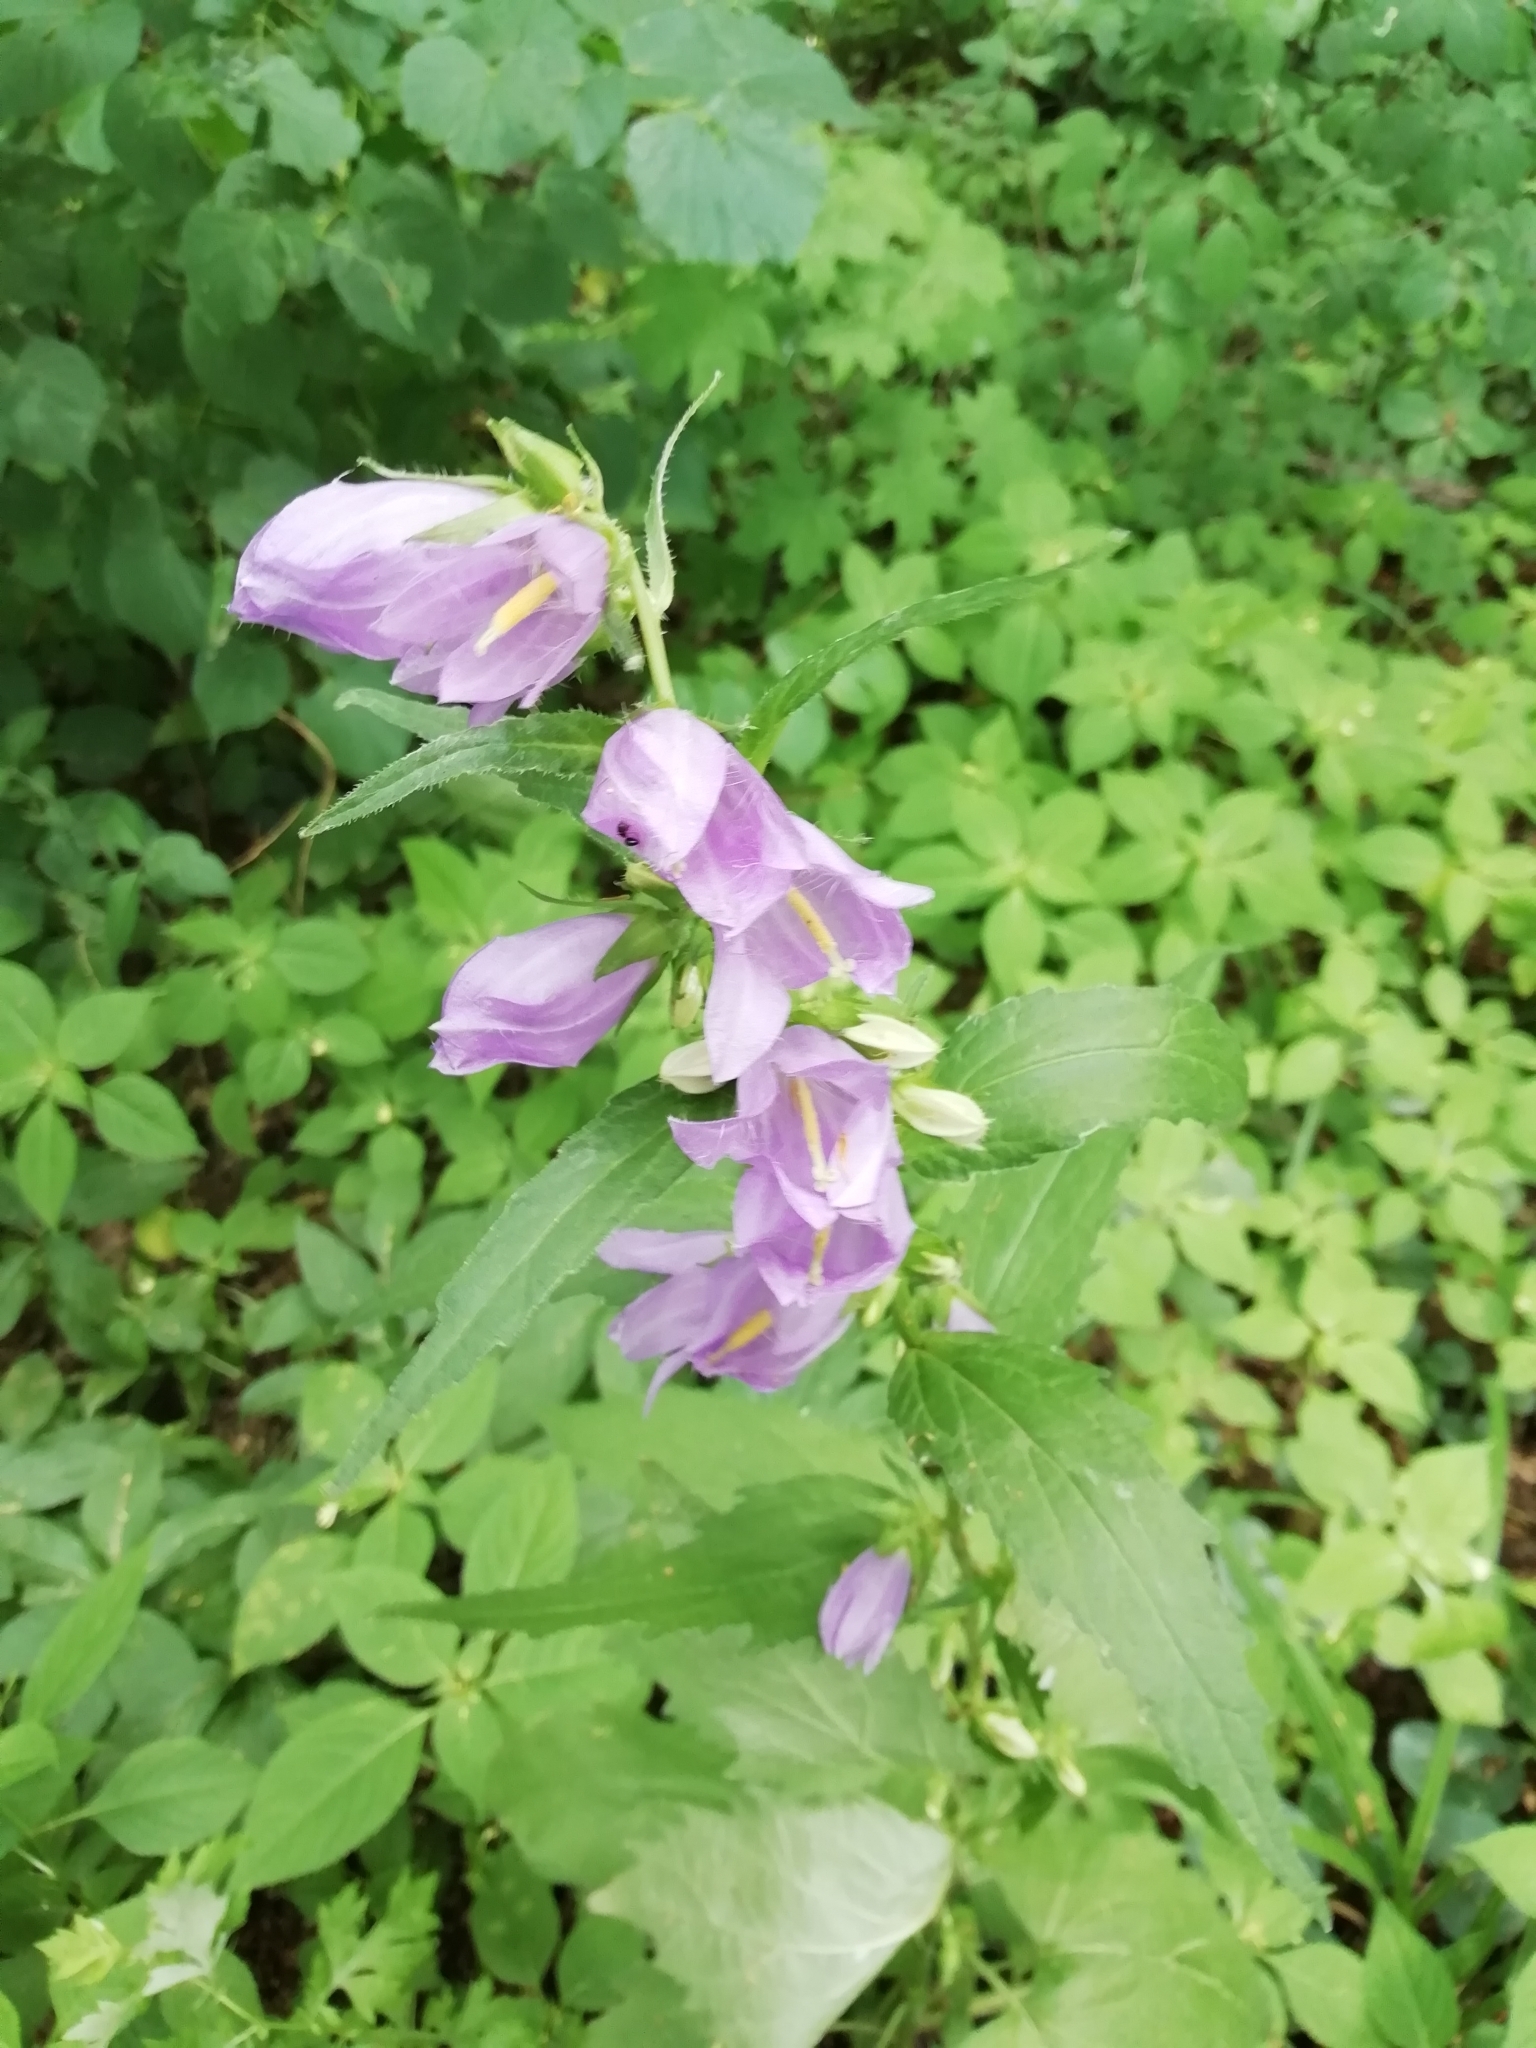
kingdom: Plantae
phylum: Tracheophyta
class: Magnoliopsida
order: Asterales
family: Campanulaceae
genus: Campanula
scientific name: Campanula trachelium
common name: Nettle-leaved bellflower
